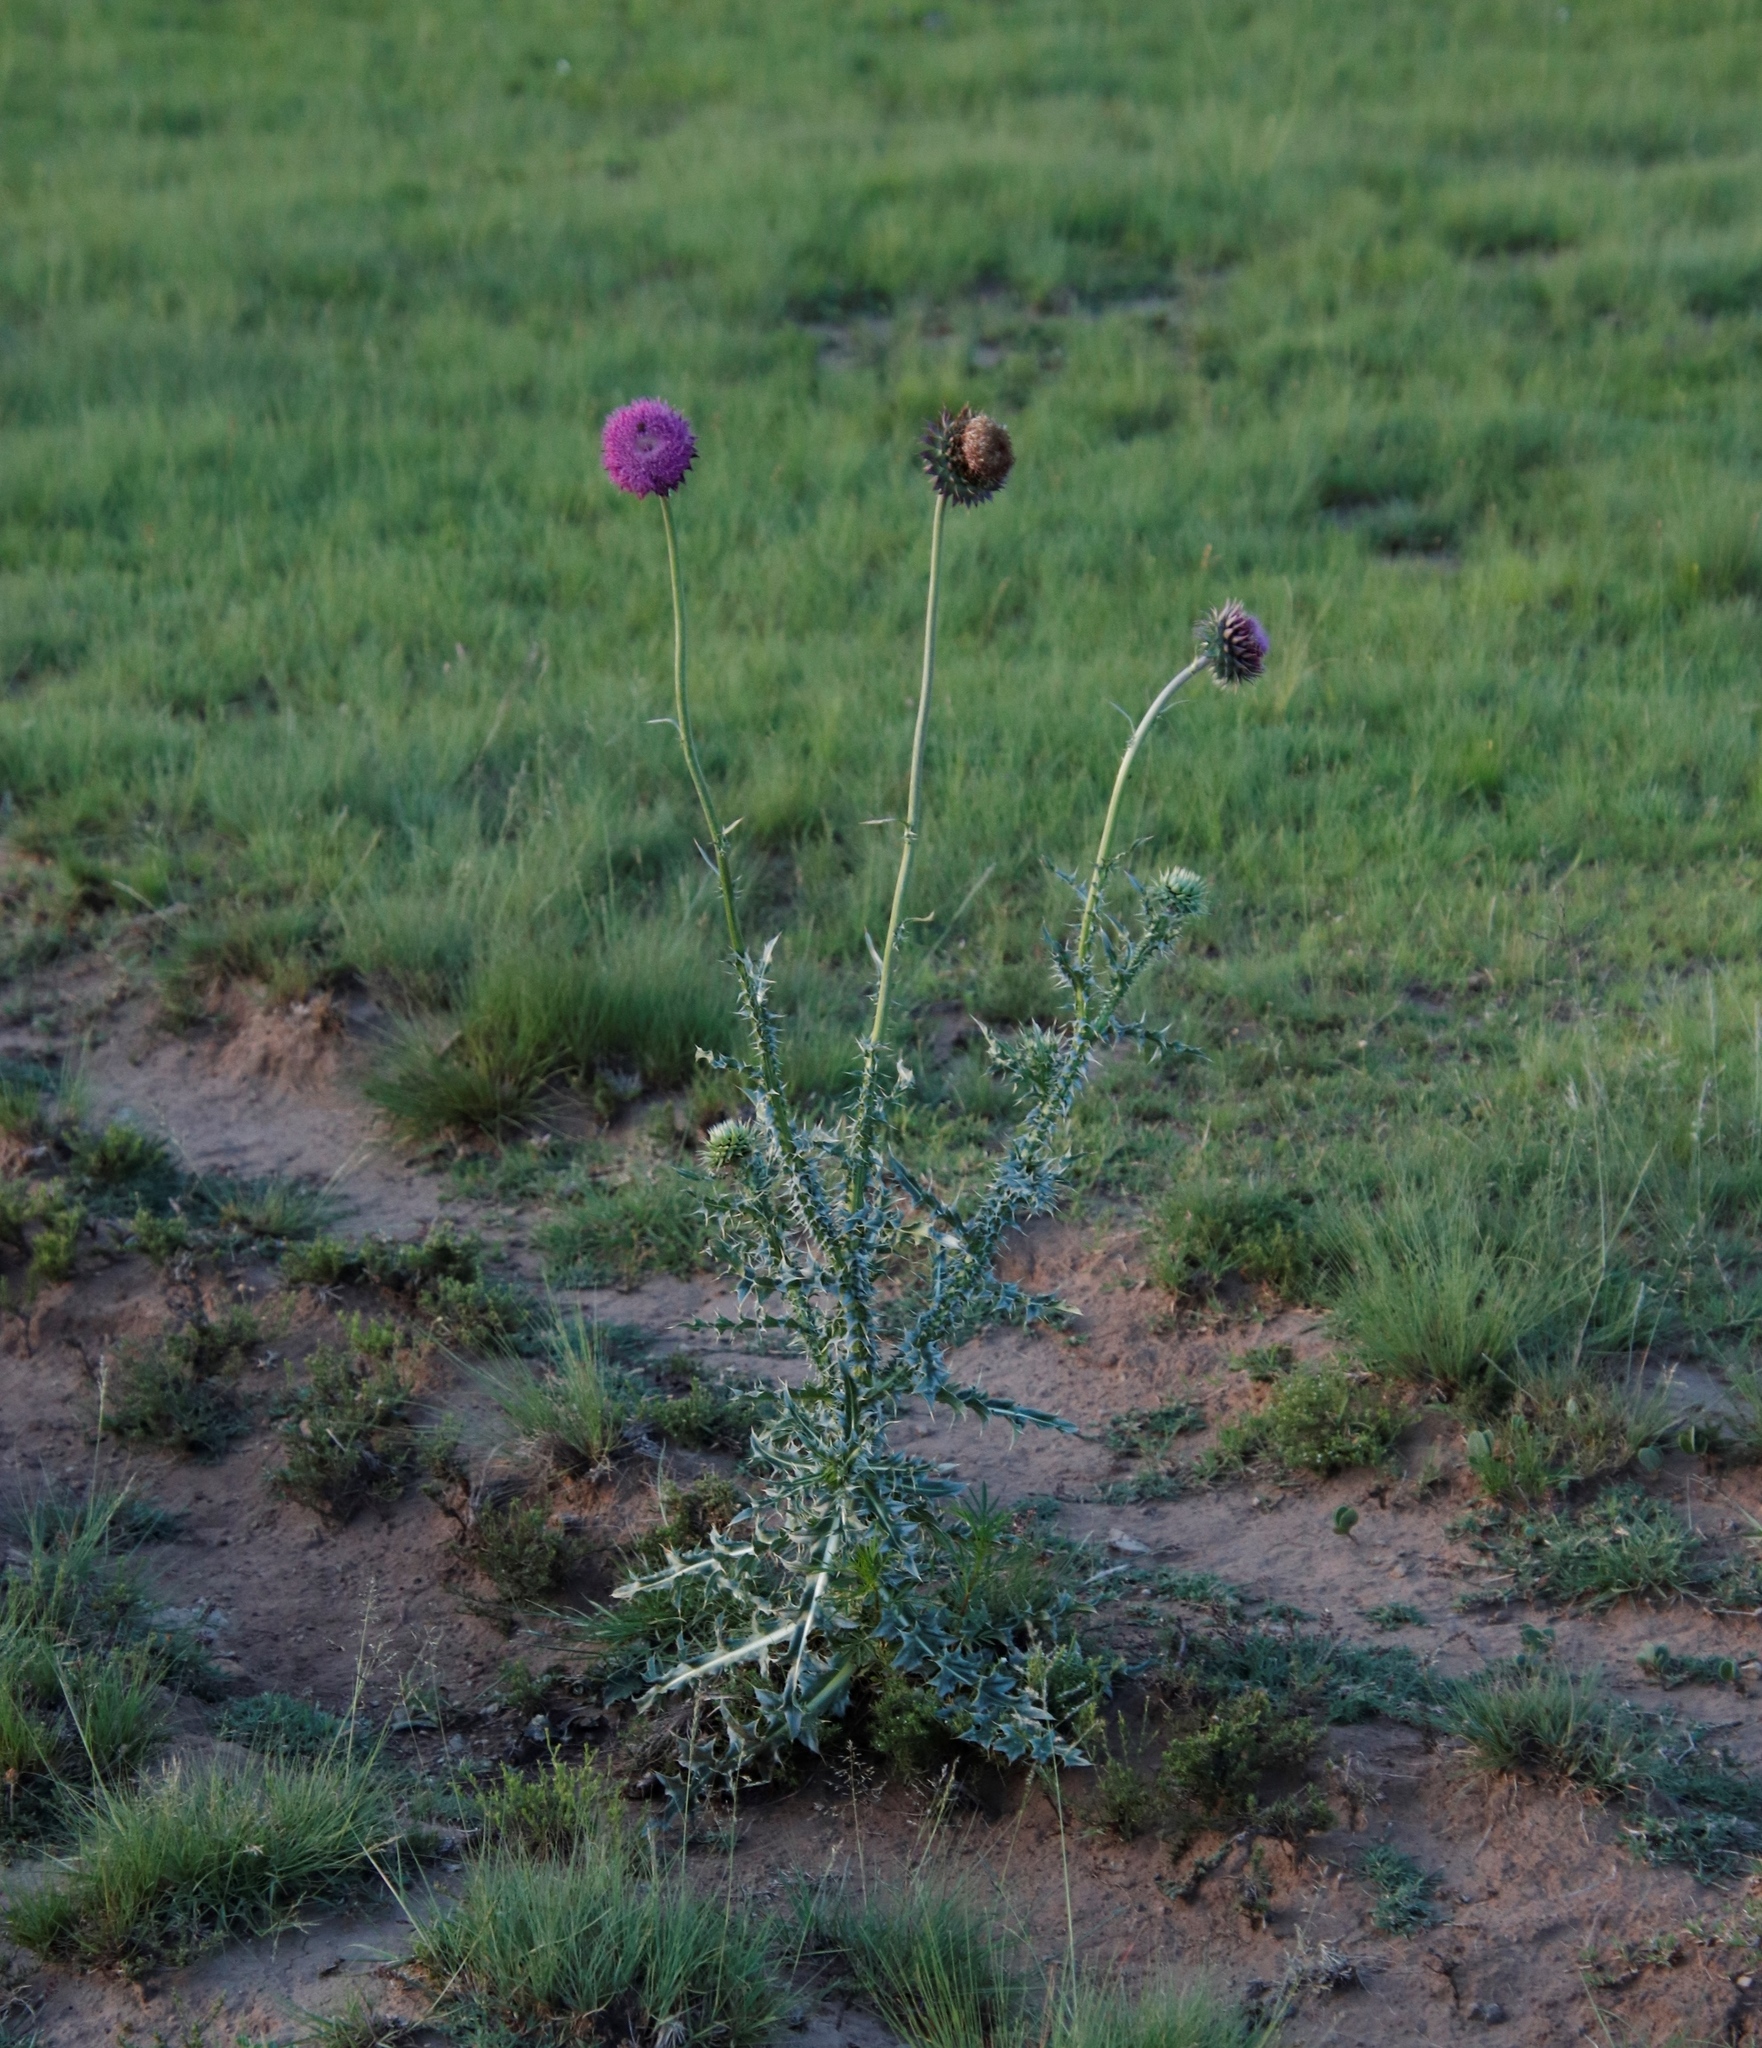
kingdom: Plantae
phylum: Tracheophyta
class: Magnoliopsida
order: Asterales
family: Asteraceae
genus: Carduus
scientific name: Carduus nutans
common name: Musk thistle
